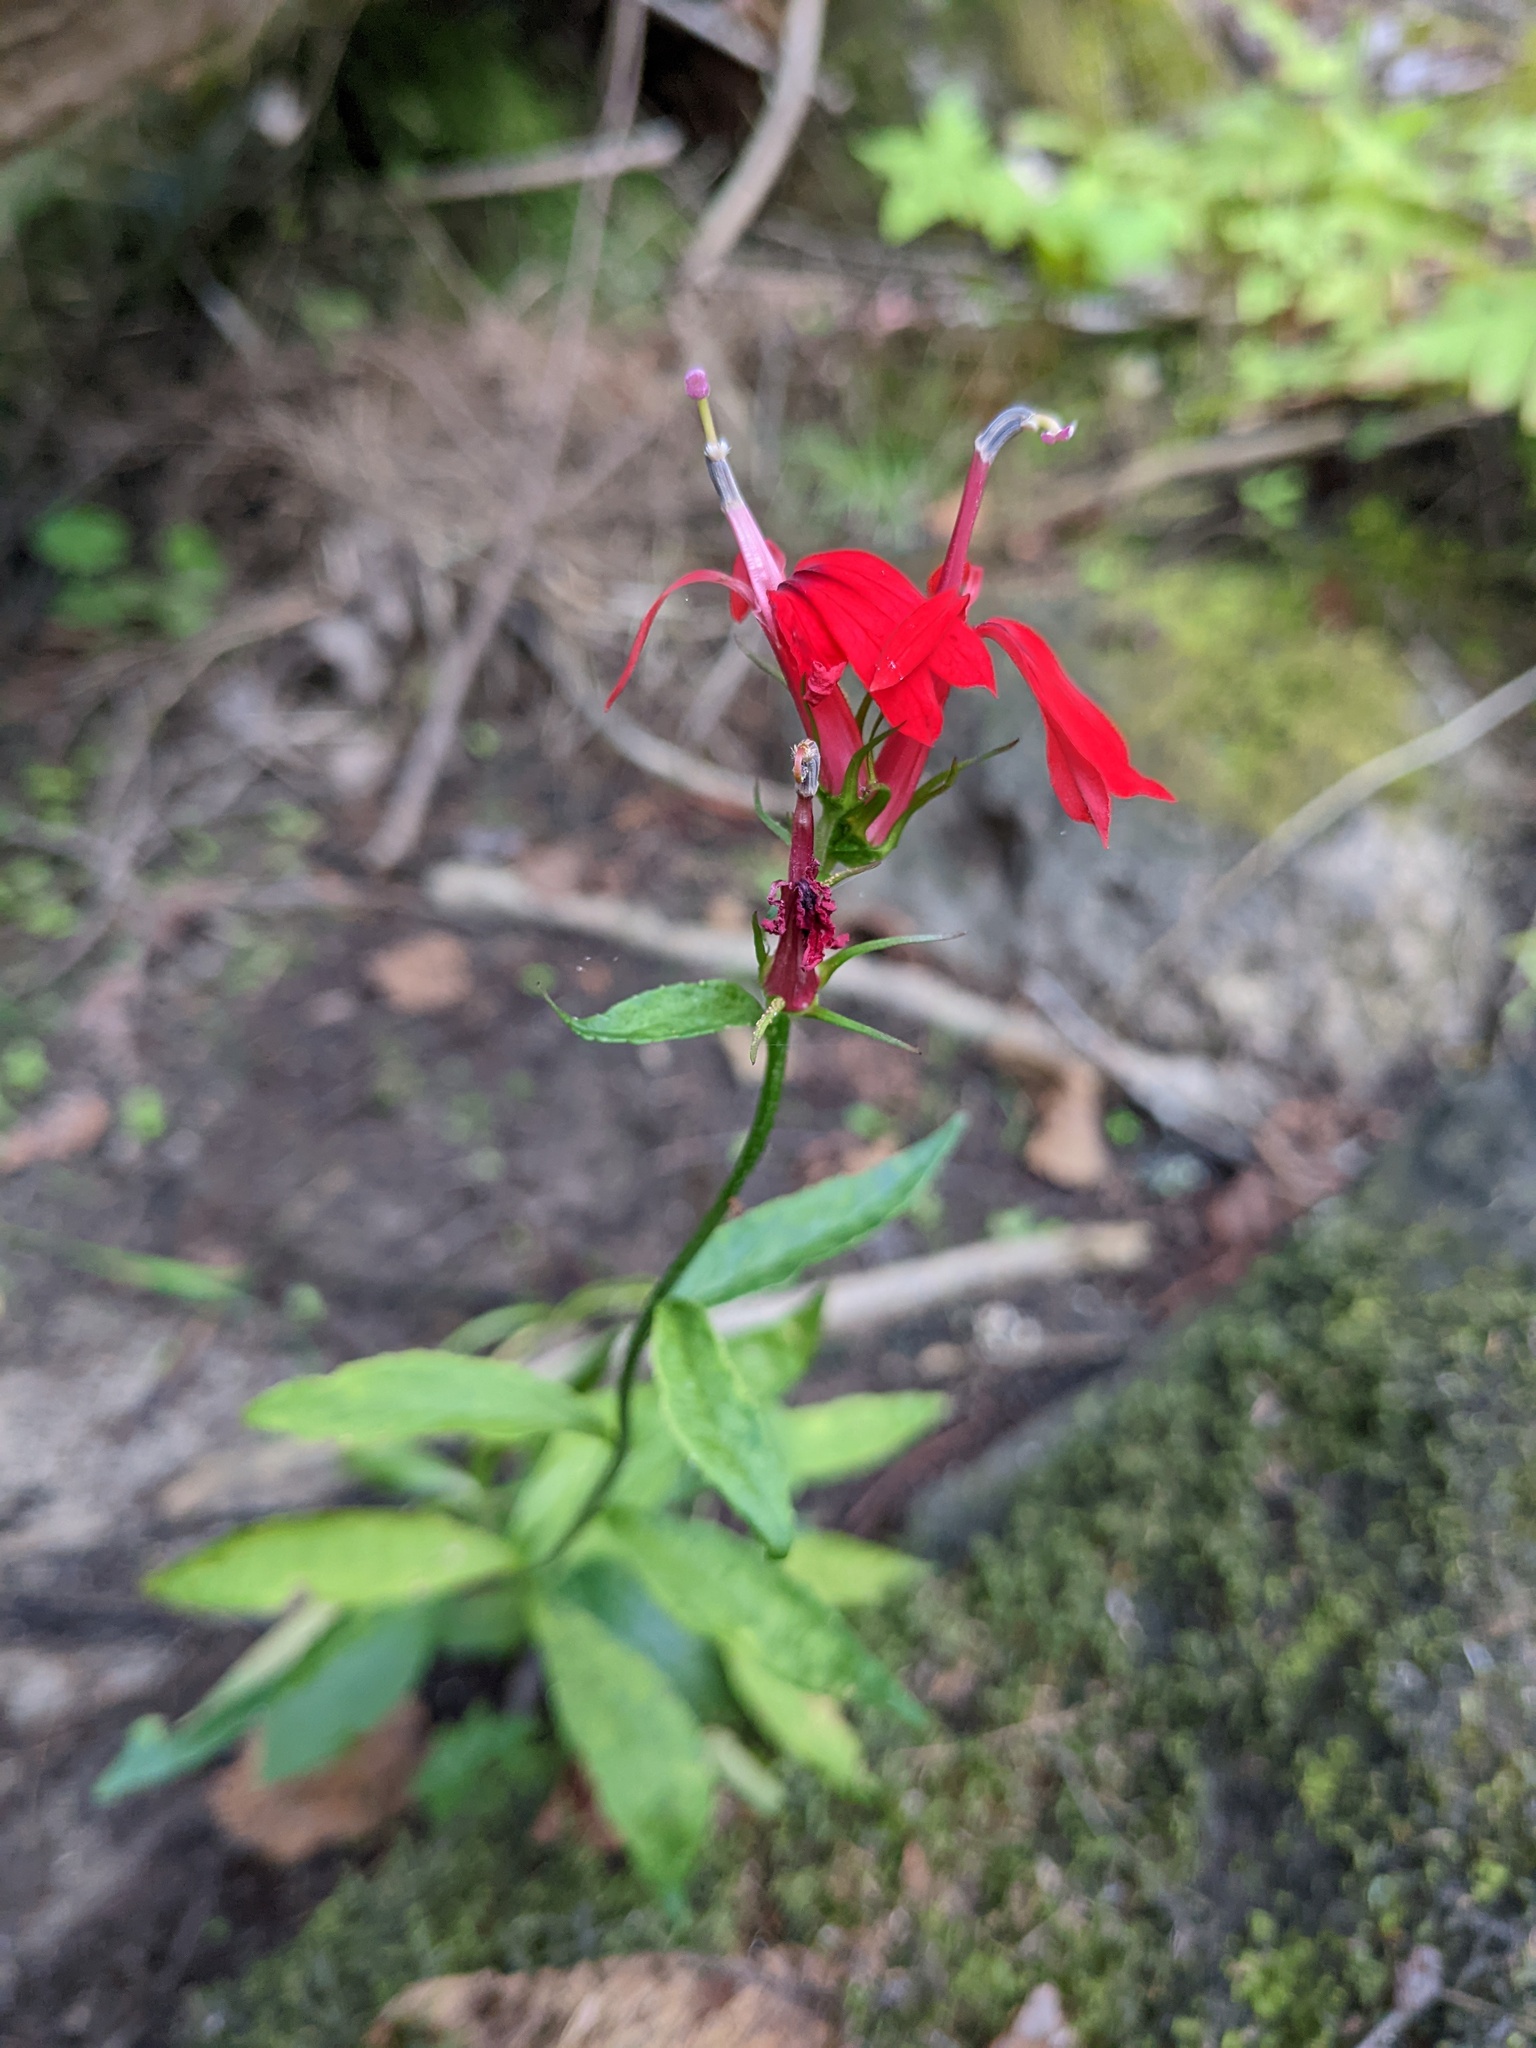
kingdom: Plantae
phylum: Tracheophyta
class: Magnoliopsida
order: Asterales
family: Campanulaceae
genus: Lobelia
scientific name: Lobelia cardinalis
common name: Cardinal flower
